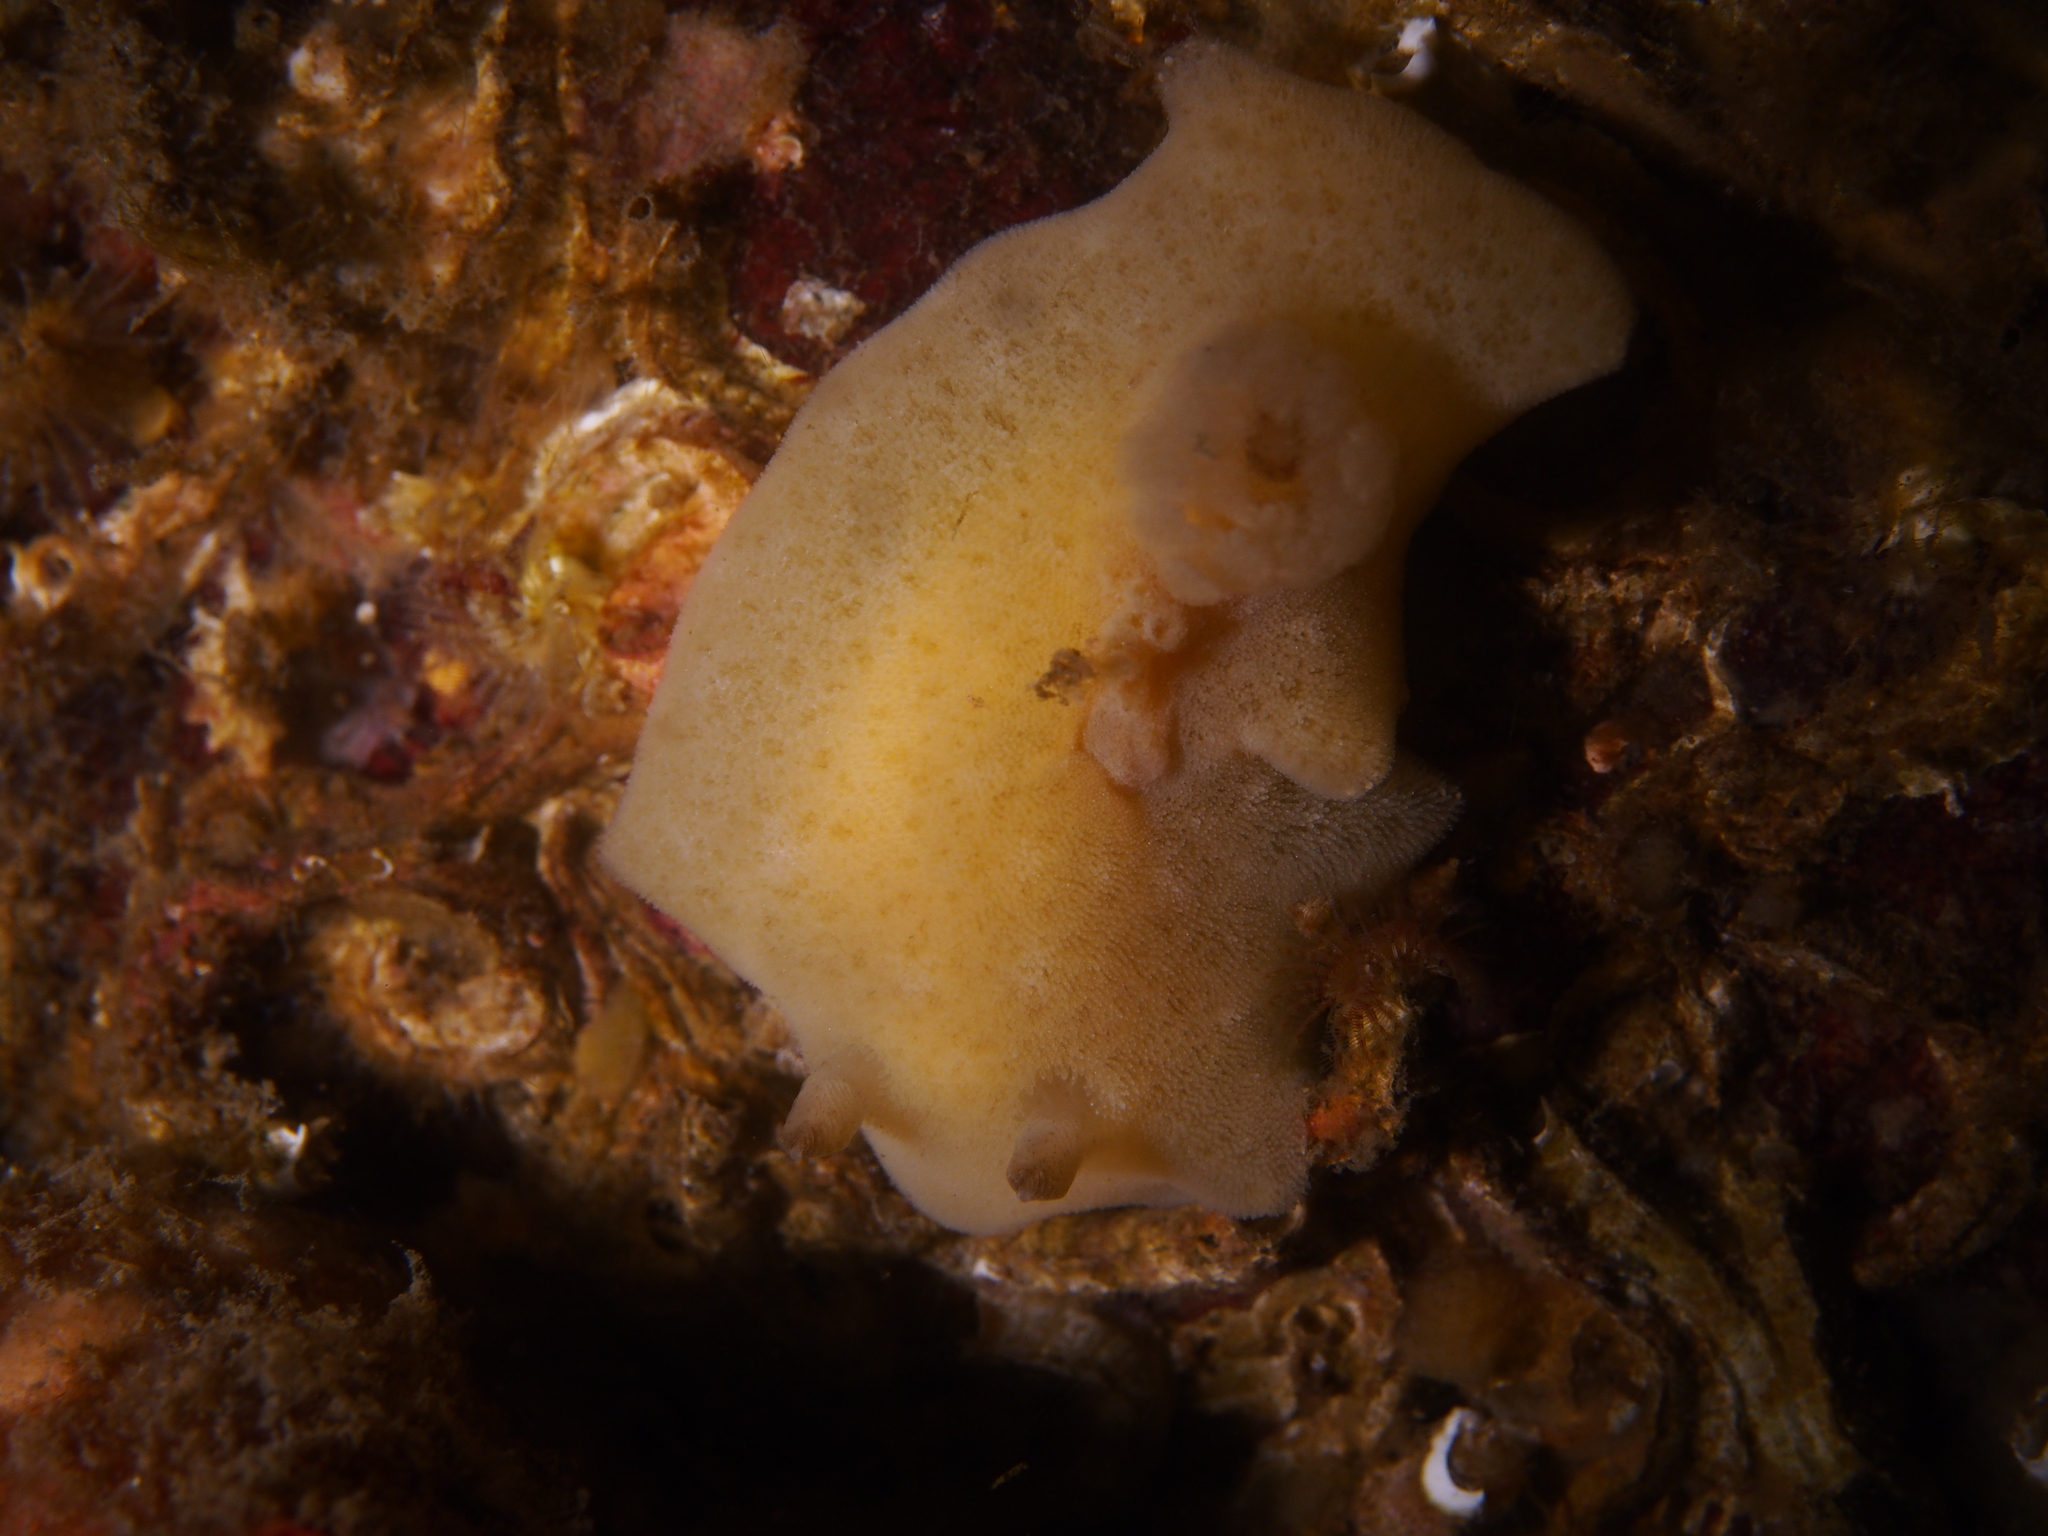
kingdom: Animalia
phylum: Mollusca
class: Gastropoda
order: Nudibranchia
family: Discodorididae
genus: Jorunna
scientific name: Jorunna tomentosa
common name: Grey sea slug
